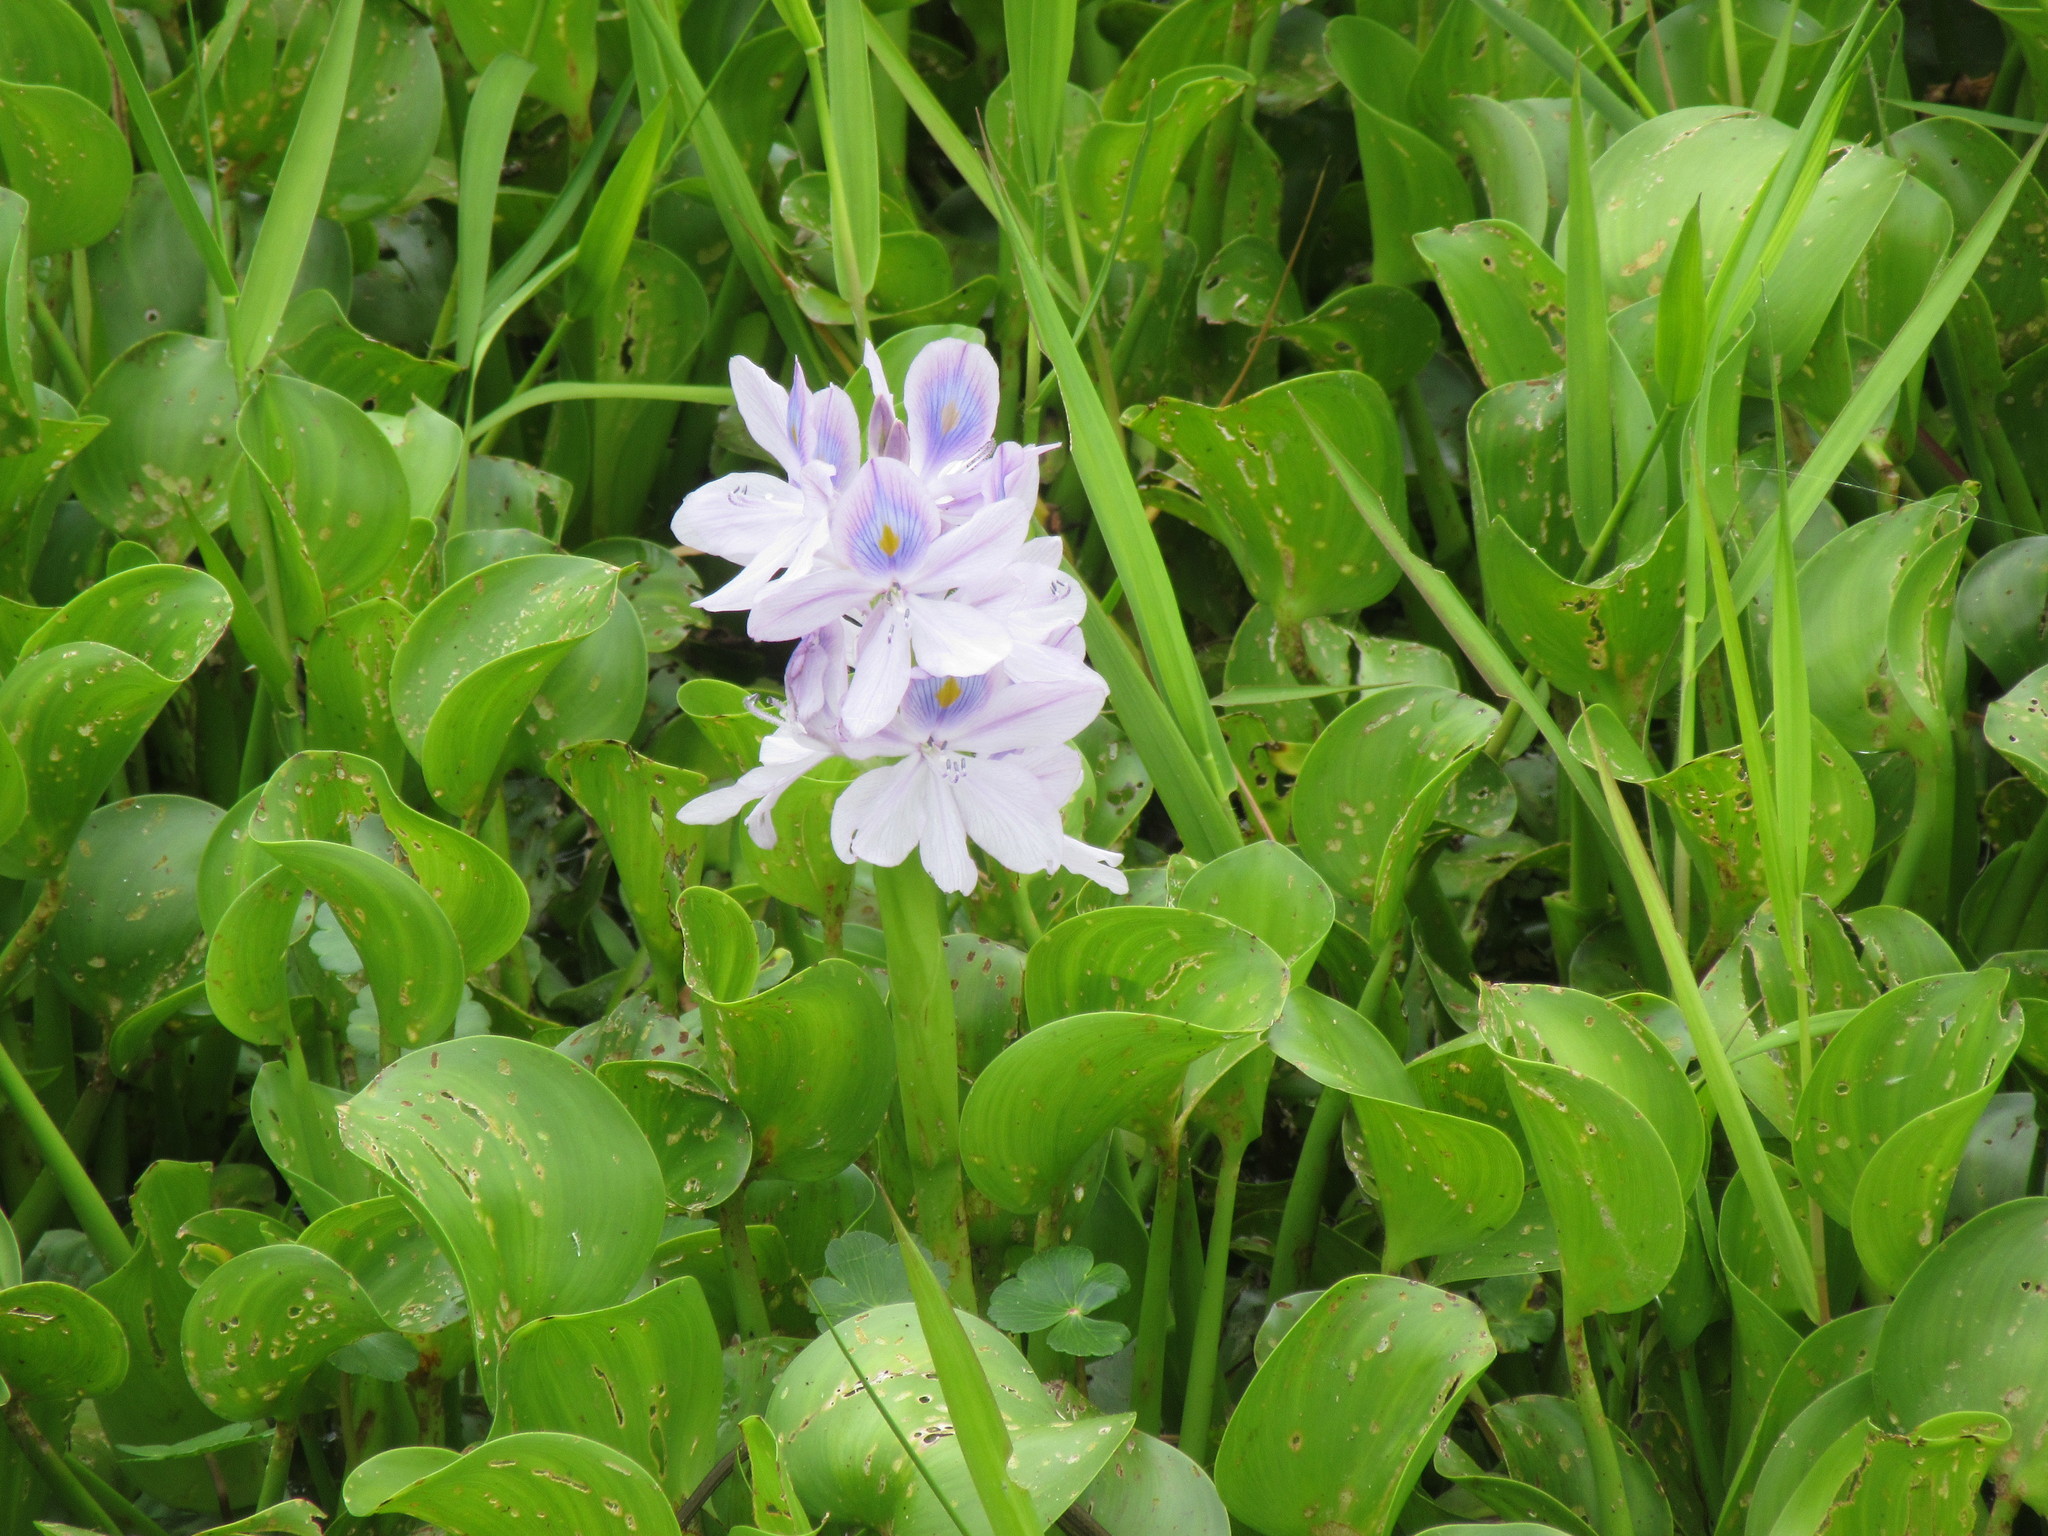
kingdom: Plantae
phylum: Tracheophyta
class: Liliopsida
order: Commelinales
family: Pontederiaceae
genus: Pontederia
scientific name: Pontederia crassipes
